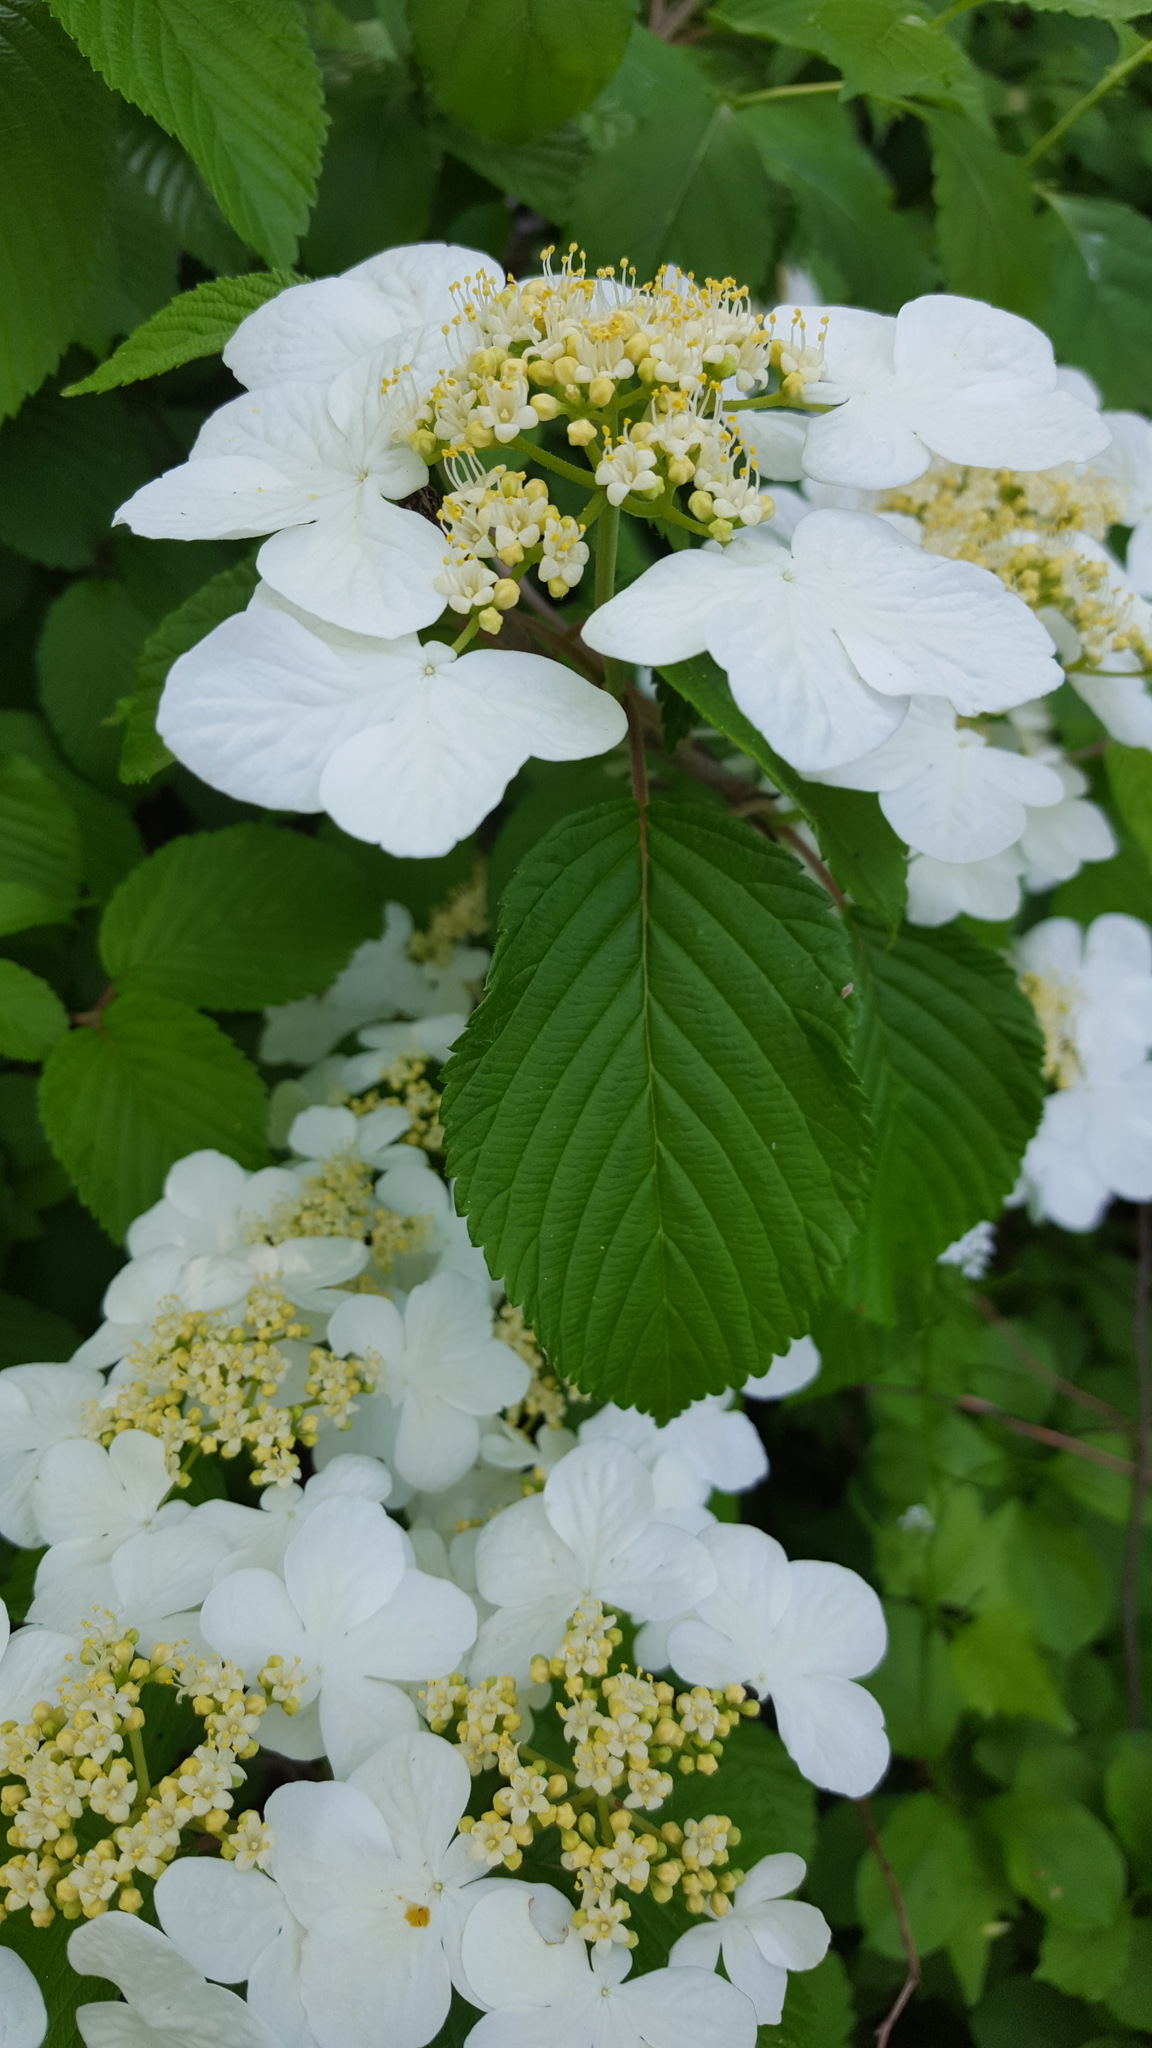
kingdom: Plantae
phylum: Tracheophyta
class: Magnoliopsida
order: Dipsacales
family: Viburnaceae
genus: Viburnum
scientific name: Viburnum plicatum
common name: Japanese snowball
